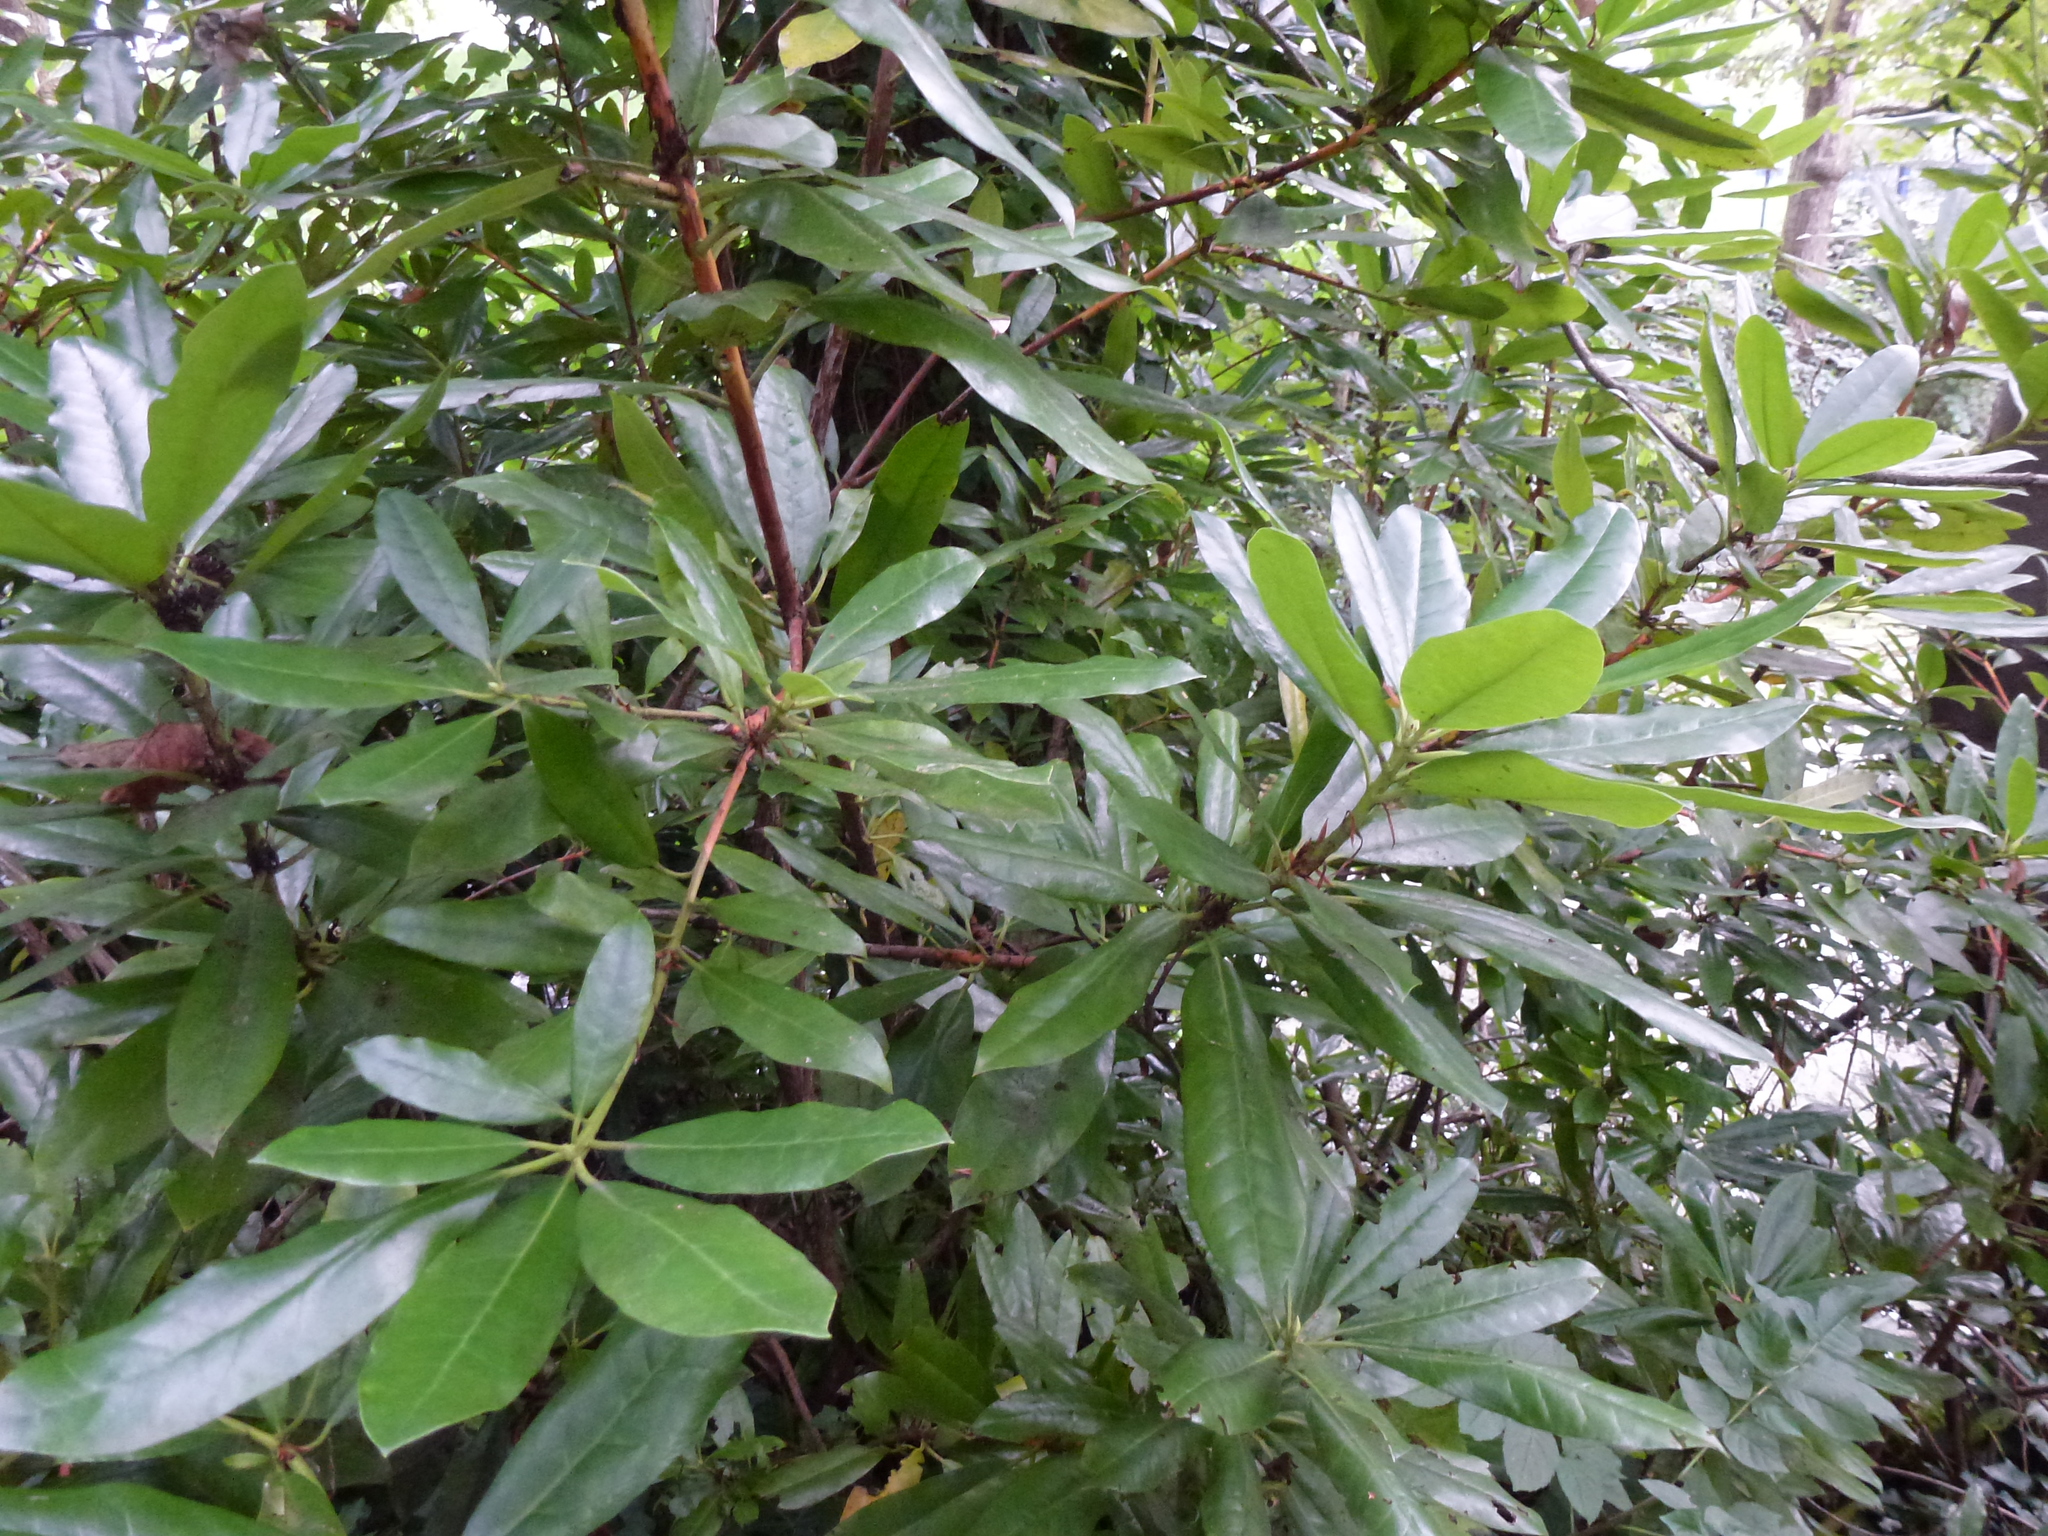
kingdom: Plantae
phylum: Tracheophyta
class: Magnoliopsida
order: Ericales
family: Ericaceae
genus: Rhododendron
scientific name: Rhododendron ponticum
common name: Rhododendron
